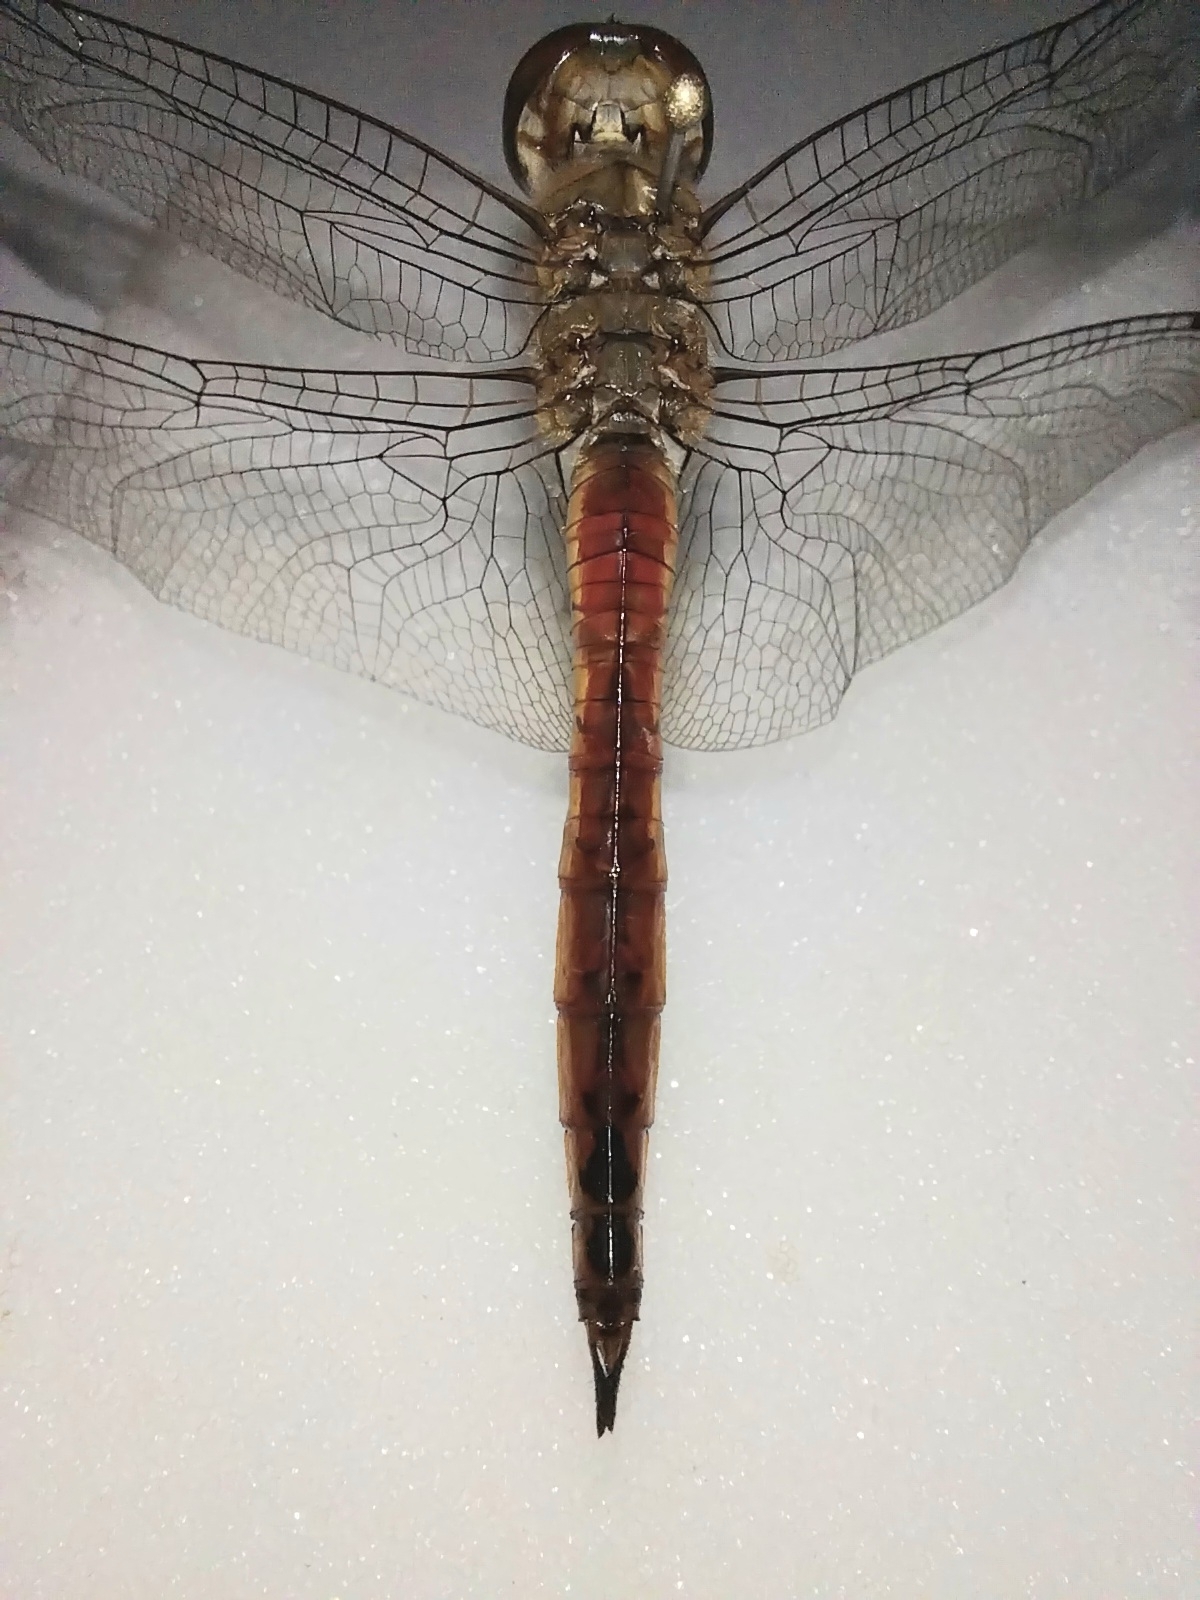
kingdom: Animalia
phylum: Arthropoda
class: Insecta
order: Odonata
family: Libellulidae
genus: Pantala
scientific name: Pantala flavescens
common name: Wandering glider
